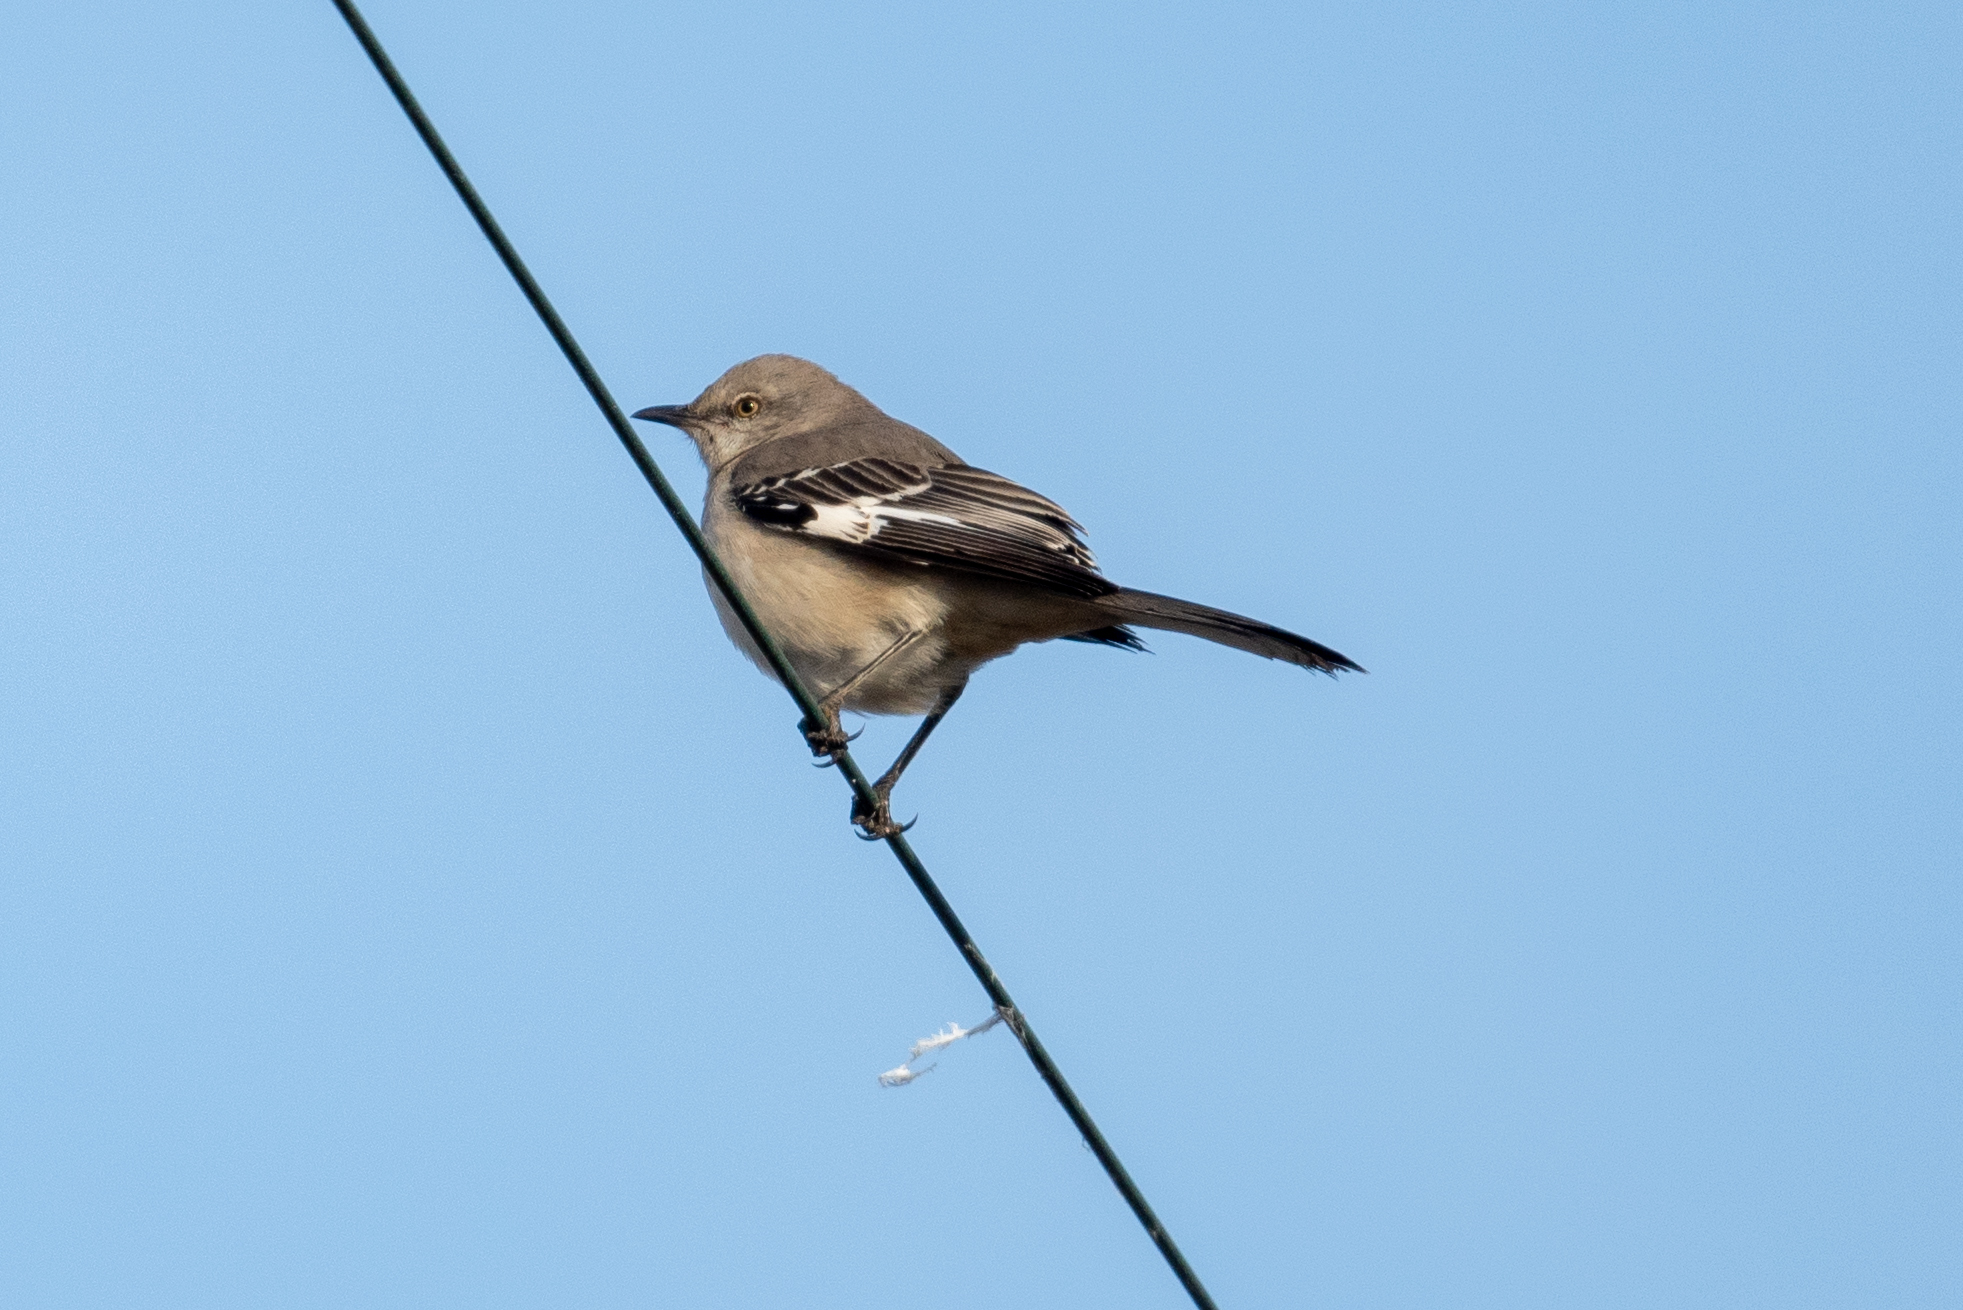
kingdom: Animalia
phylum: Chordata
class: Aves
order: Passeriformes
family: Mimidae
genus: Mimus
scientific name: Mimus polyglottos
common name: Northern mockingbird
